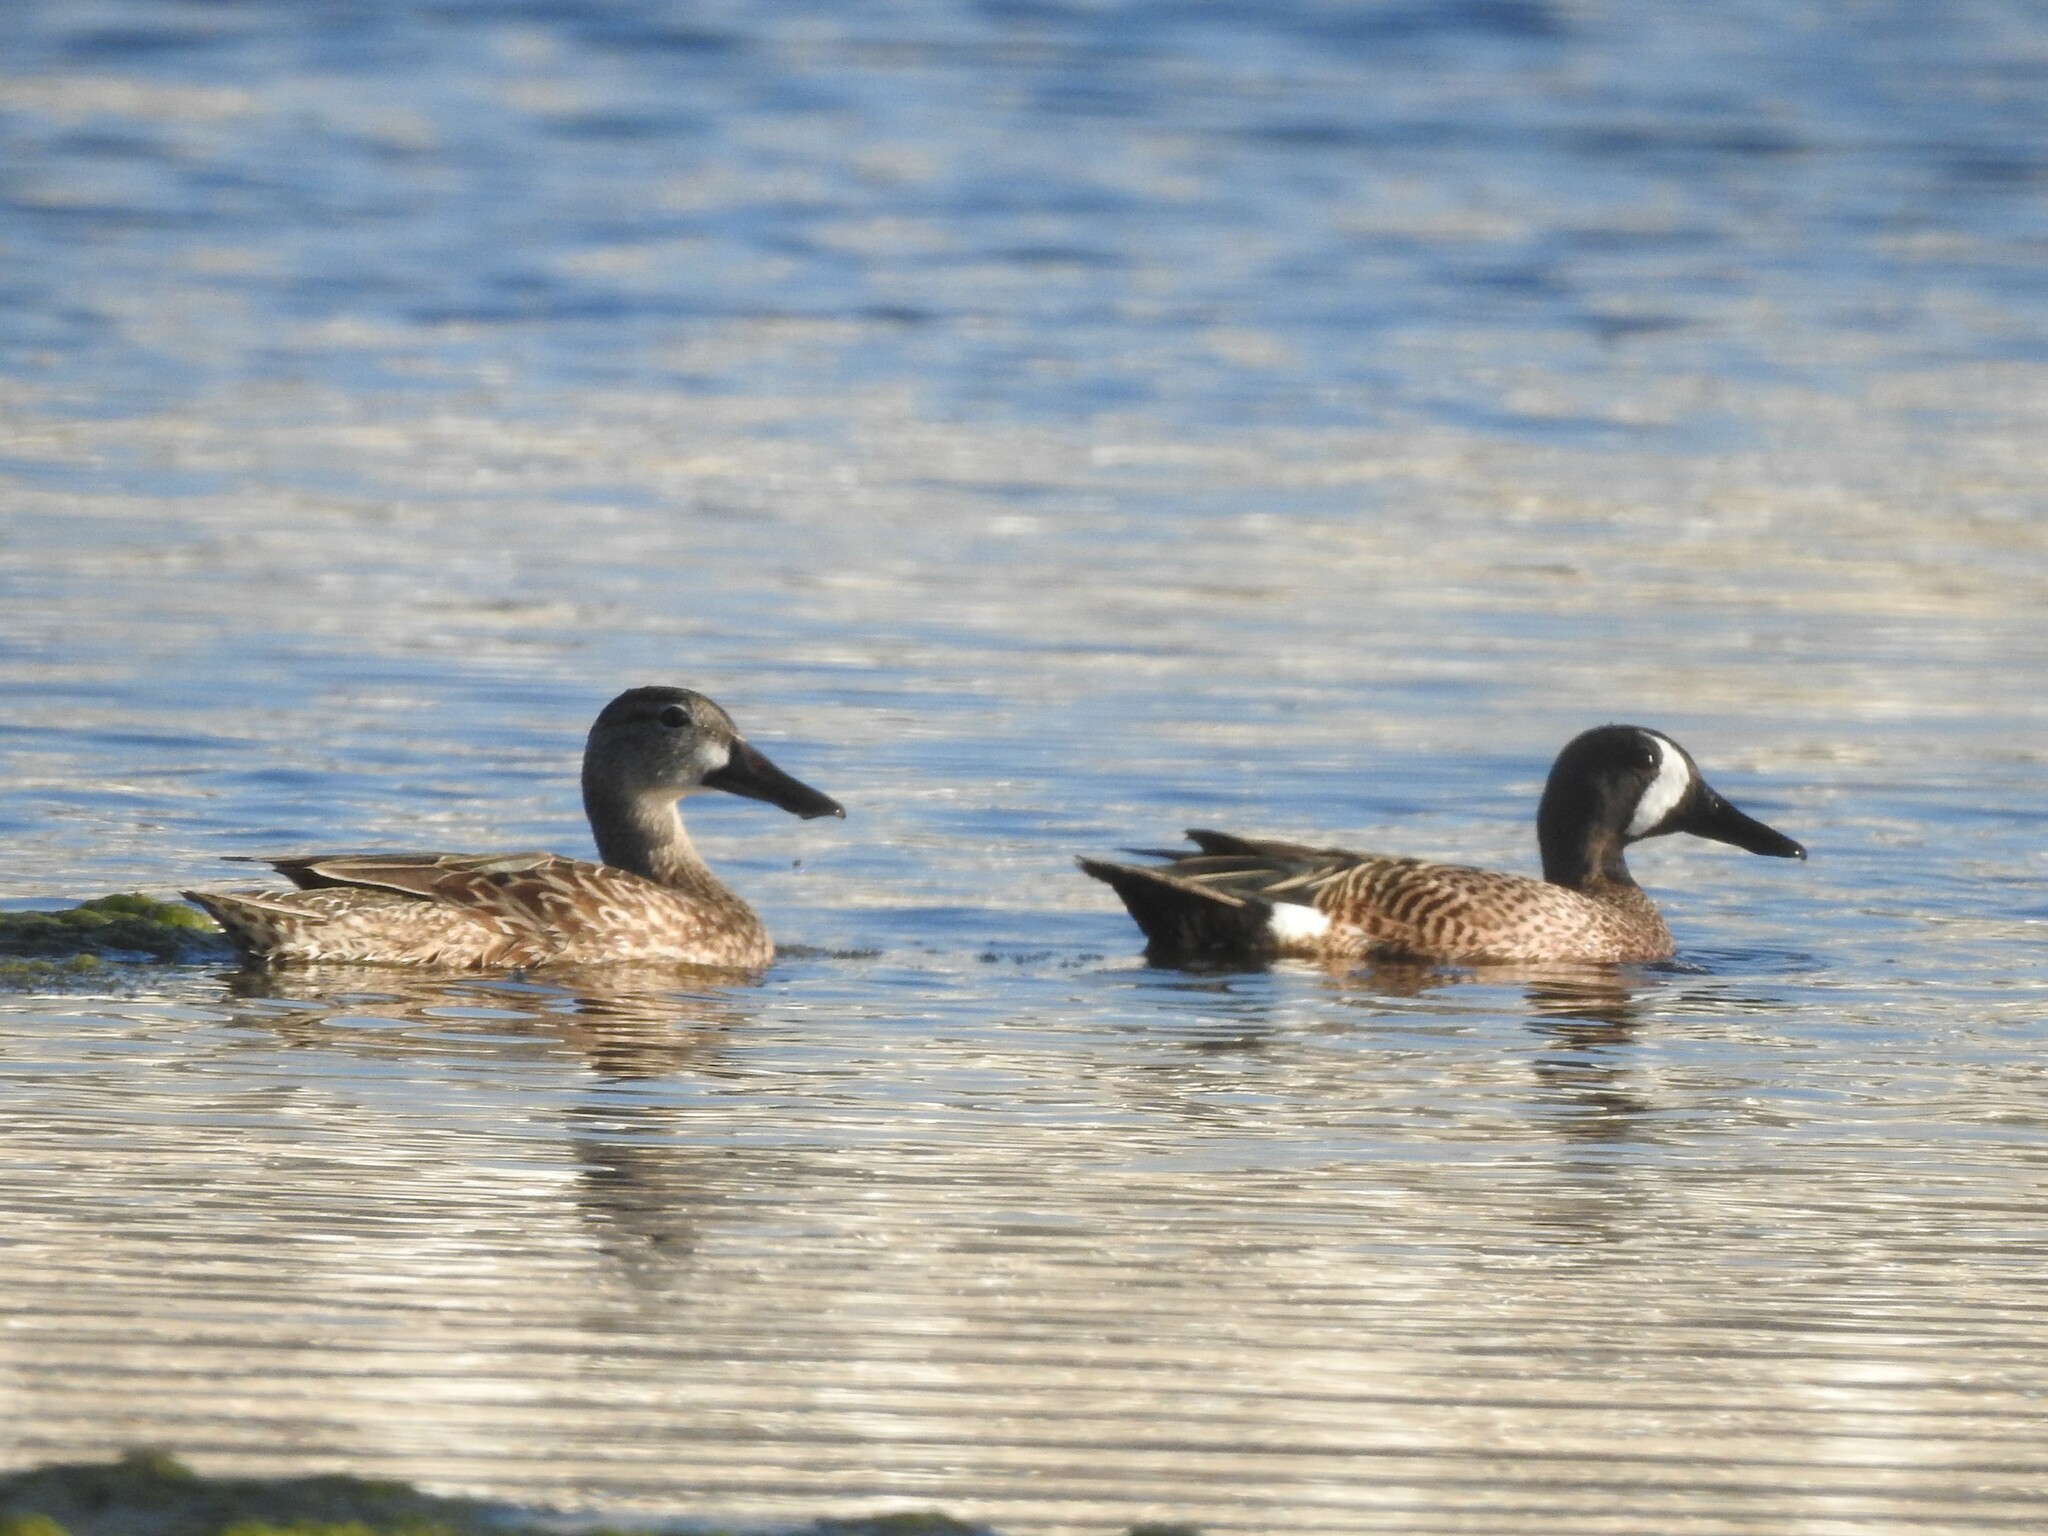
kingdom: Animalia
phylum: Chordata
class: Aves
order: Anseriformes
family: Anatidae
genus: Spatula
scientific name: Spatula discors
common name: Blue-winged teal
